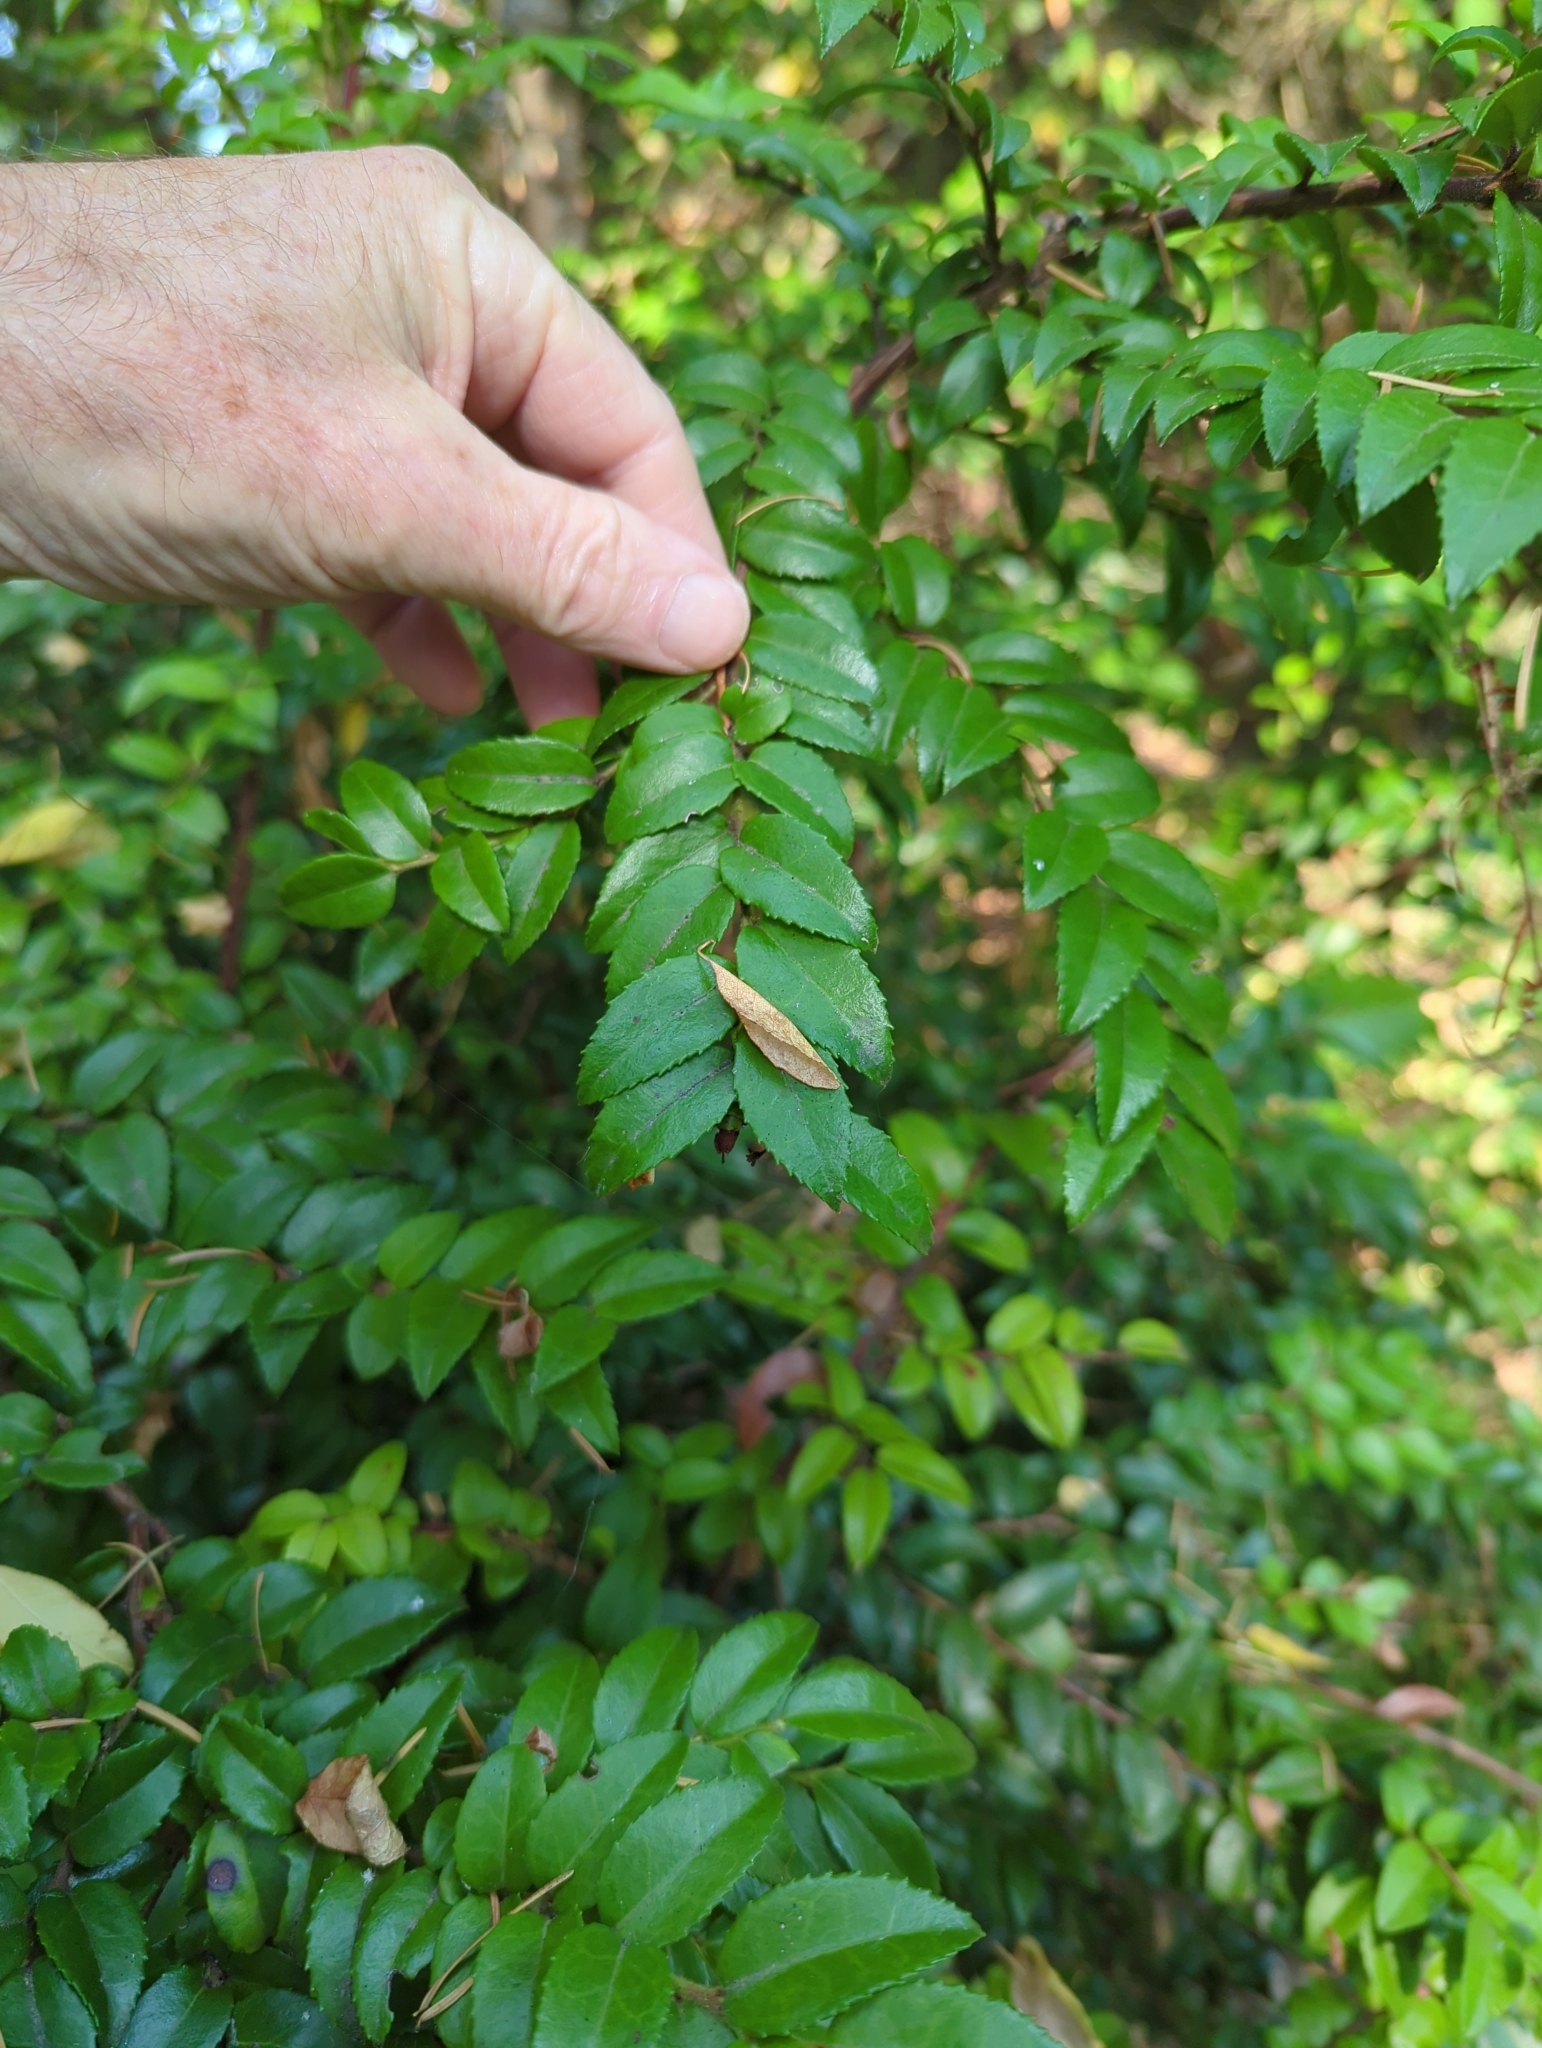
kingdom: Plantae
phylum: Tracheophyta
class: Magnoliopsida
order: Ericales
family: Ericaceae
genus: Vaccinium
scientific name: Vaccinium ovatum
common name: California-huckleberry
